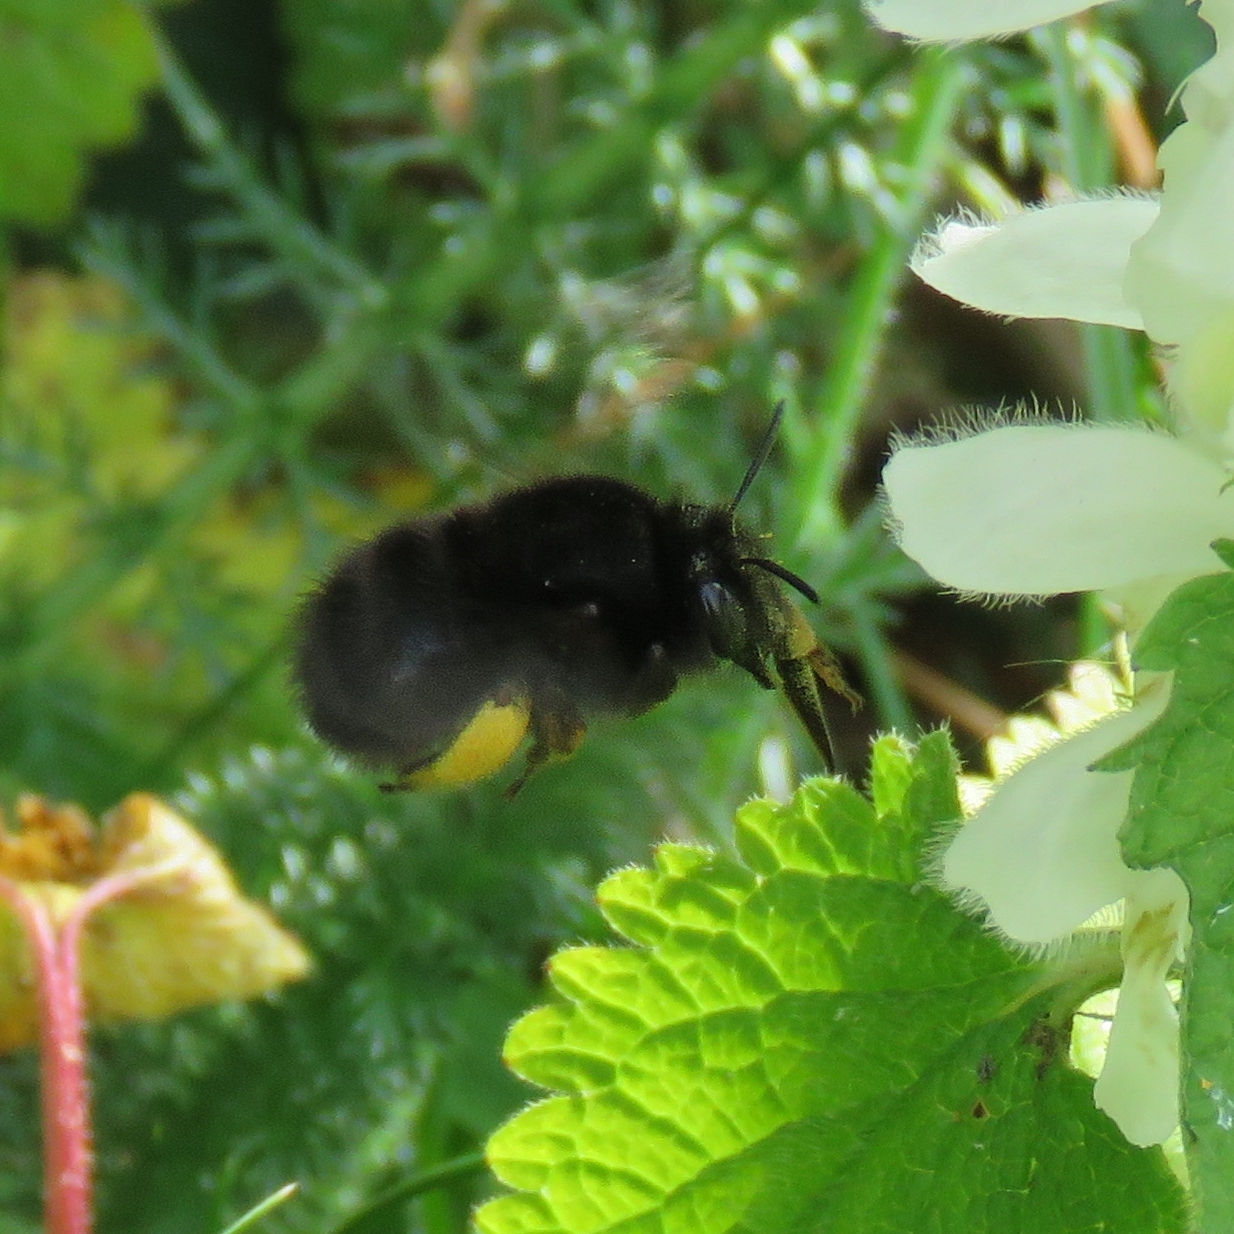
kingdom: Animalia
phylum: Arthropoda
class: Insecta
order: Hymenoptera
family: Apidae
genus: Anthophora
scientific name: Anthophora plumipes
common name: Hairy-footed flower bee
